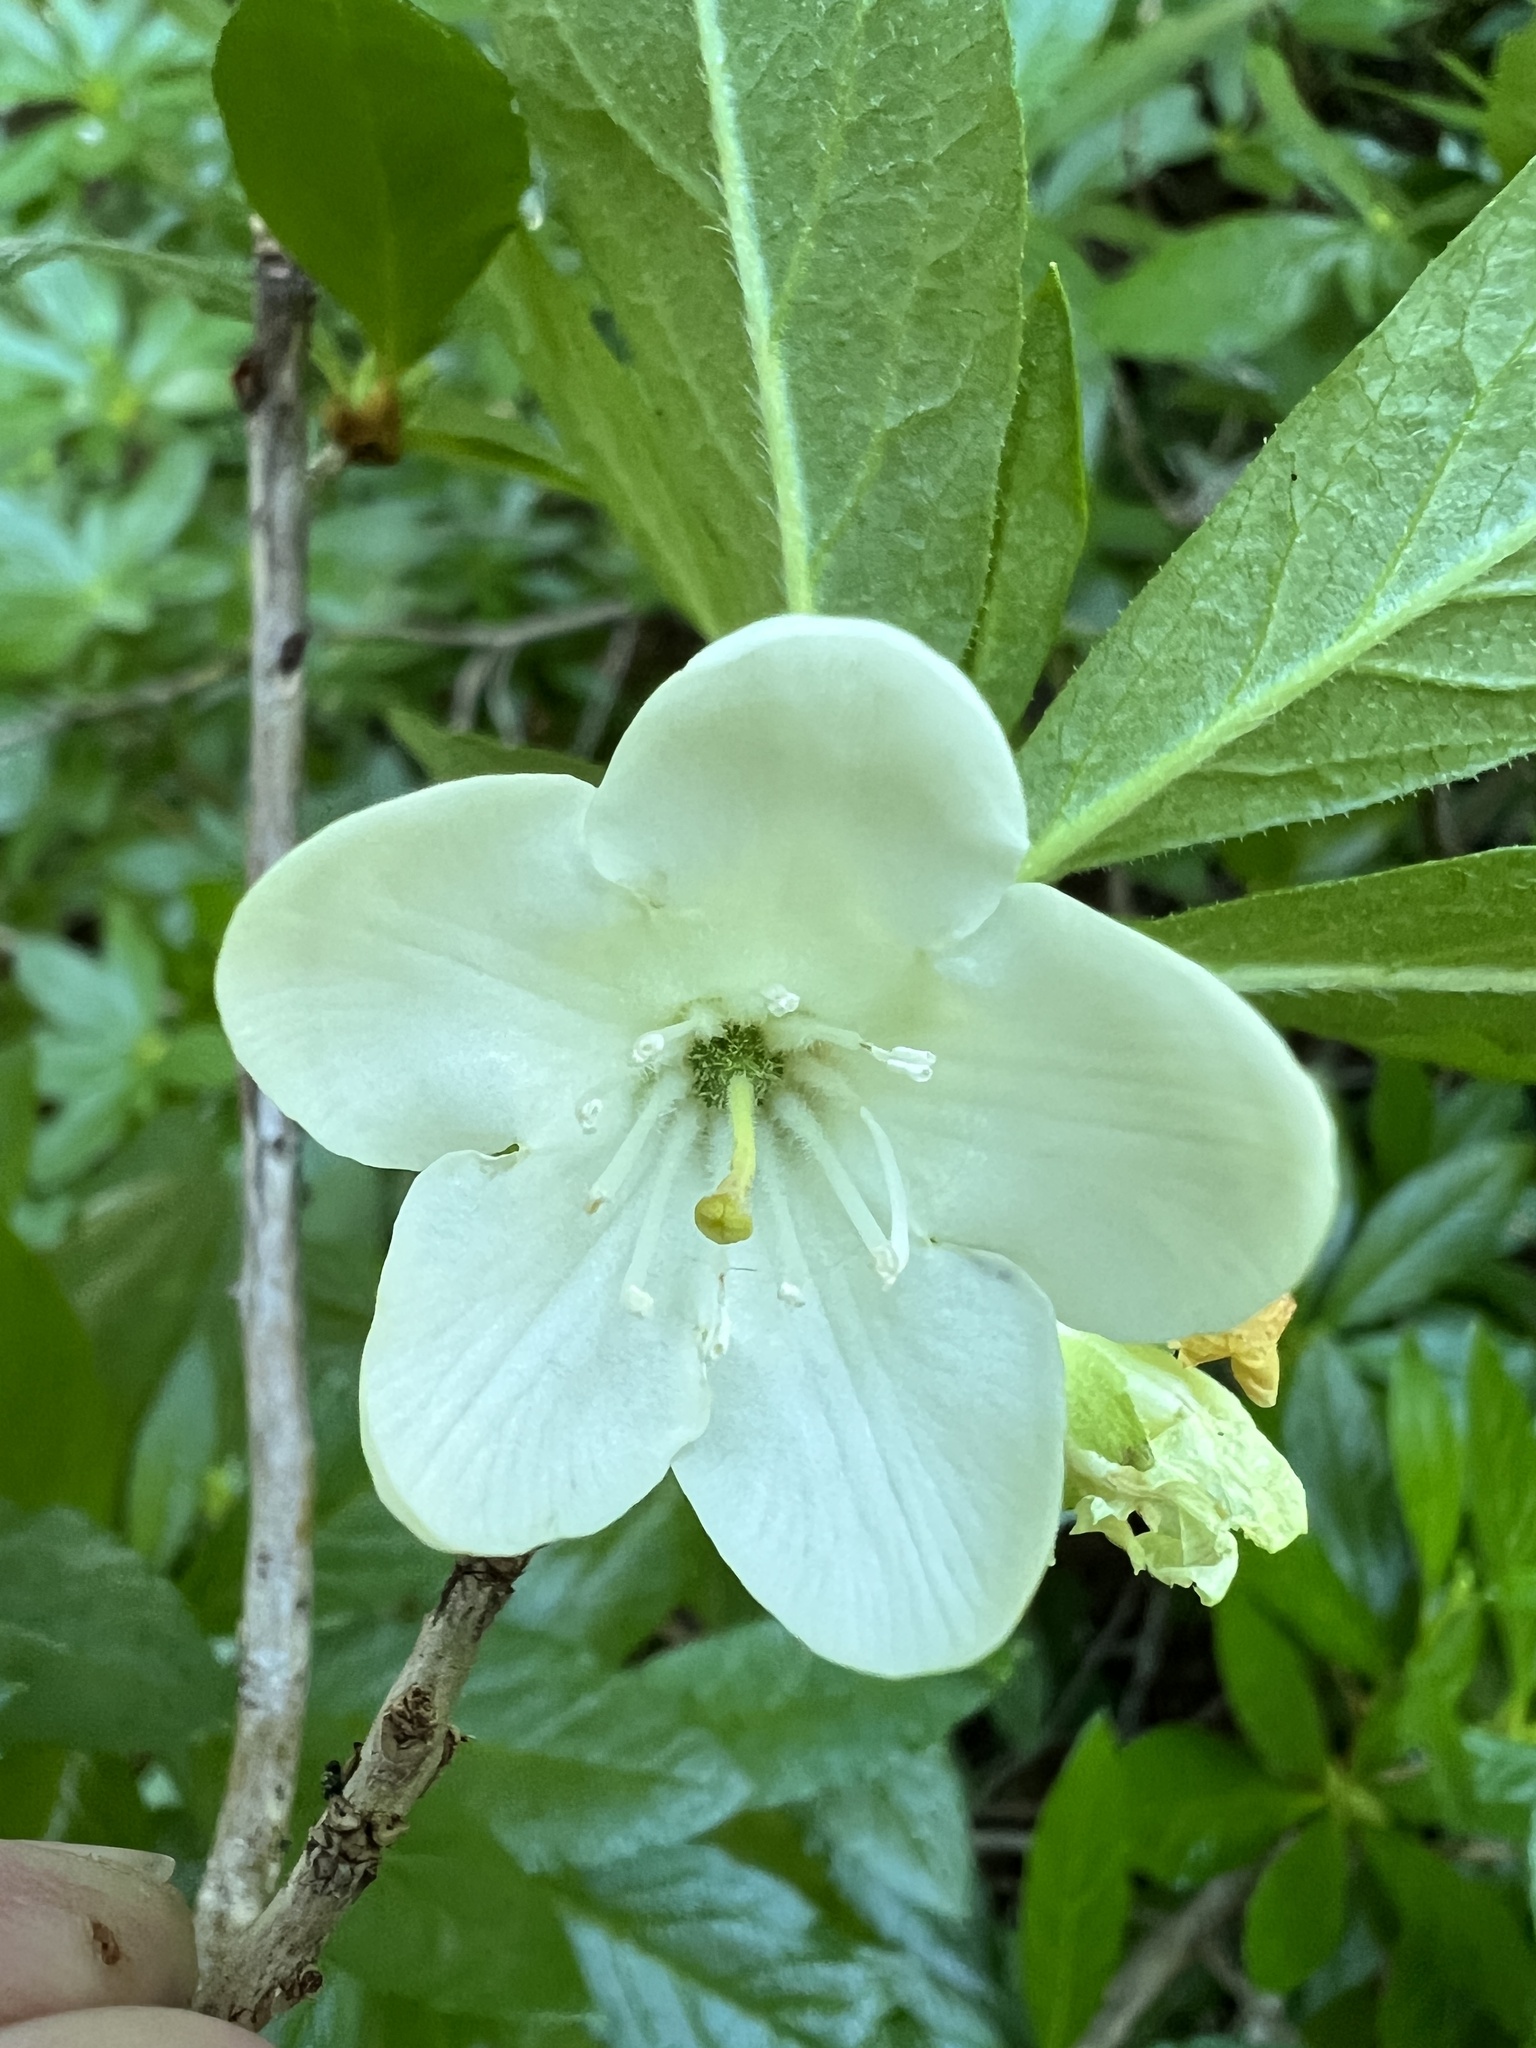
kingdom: Plantae
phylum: Tracheophyta
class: Magnoliopsida
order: Ericales
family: Ericaceae
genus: Rhododendron
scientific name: Rhododendron albiflorum
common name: White rhododendron
